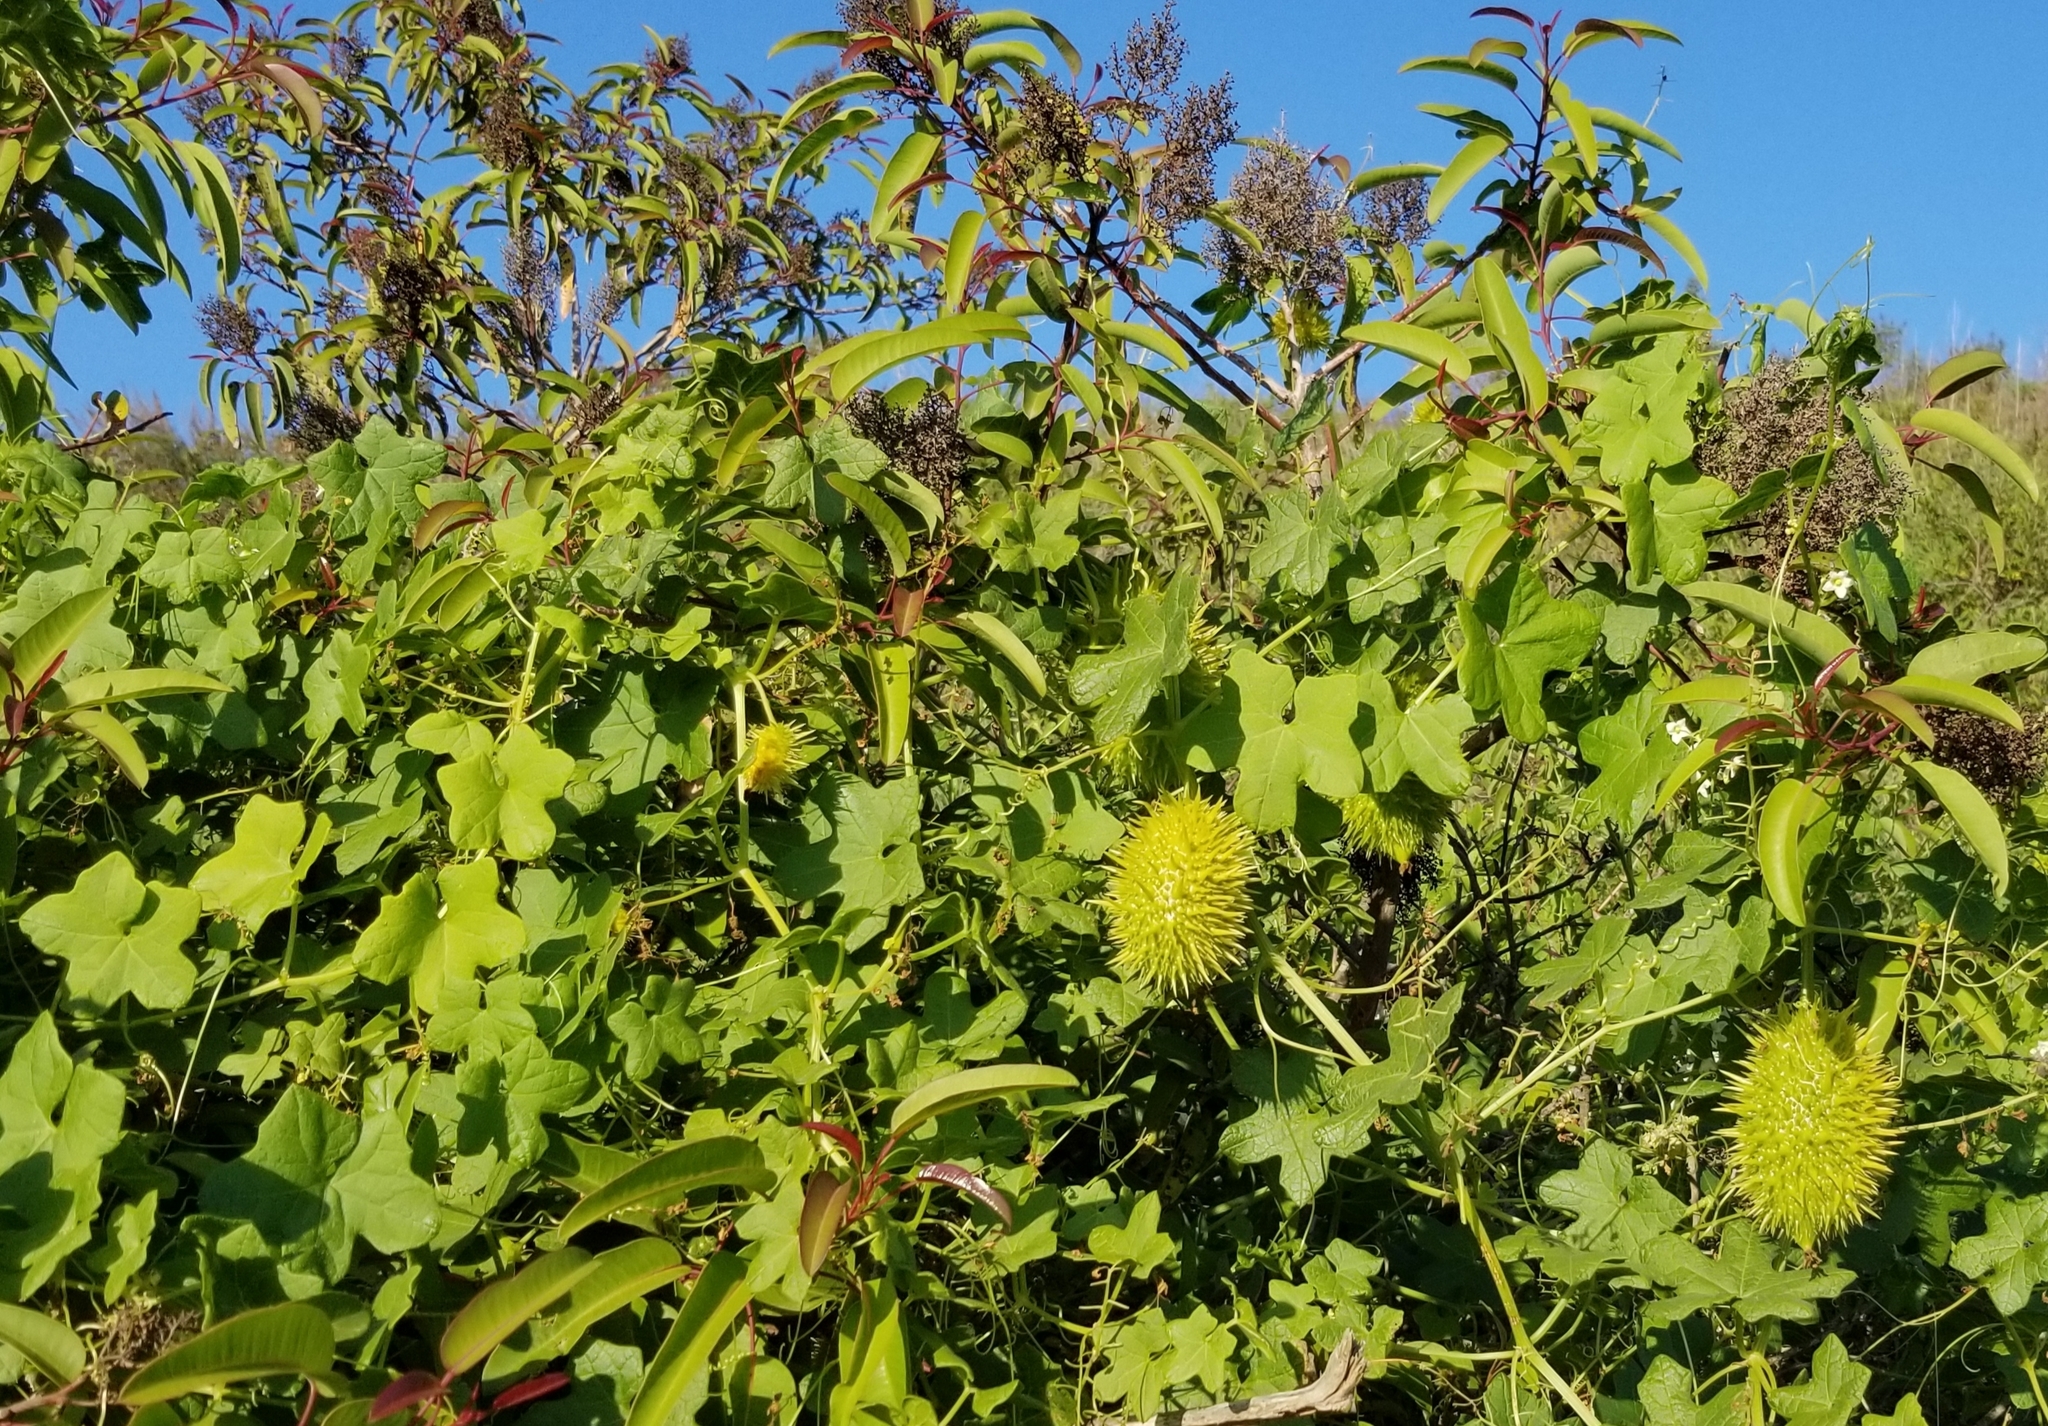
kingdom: Plantae
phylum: Tracheophyta
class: Magnoliopsida
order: Cucurbitales
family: Cucurbitaceae
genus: Marah
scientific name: Marah macrocarpa
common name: Cucamonga manroot
